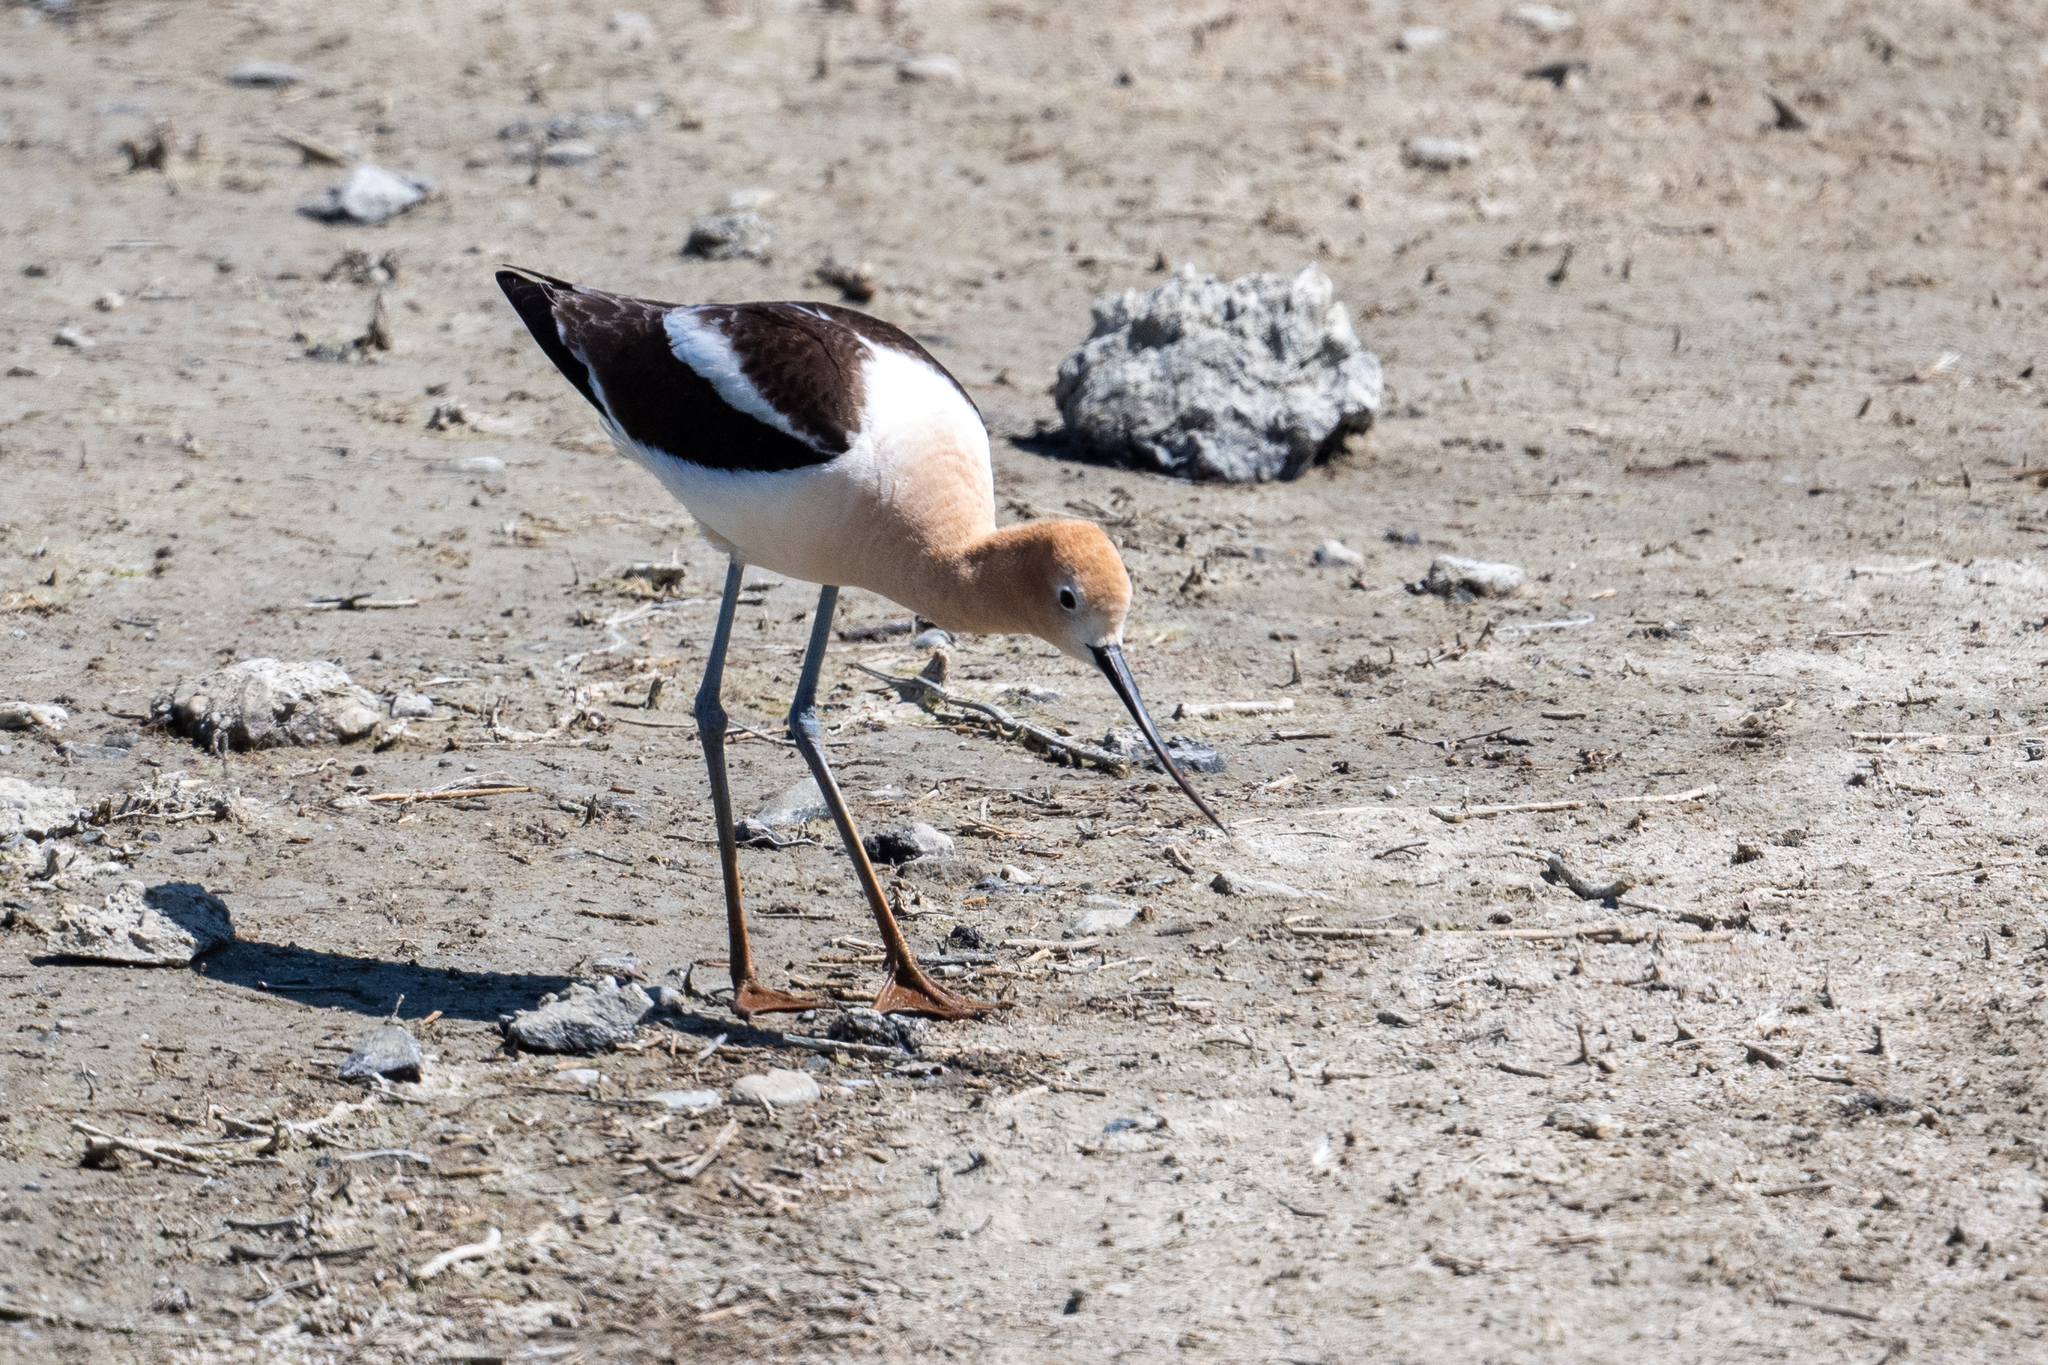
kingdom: Animalia
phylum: Chordata
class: Aves
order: Charadriiformes
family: Recurvirostridae
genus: Recurvirostra
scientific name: Recurvirostra americana
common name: American avocet
